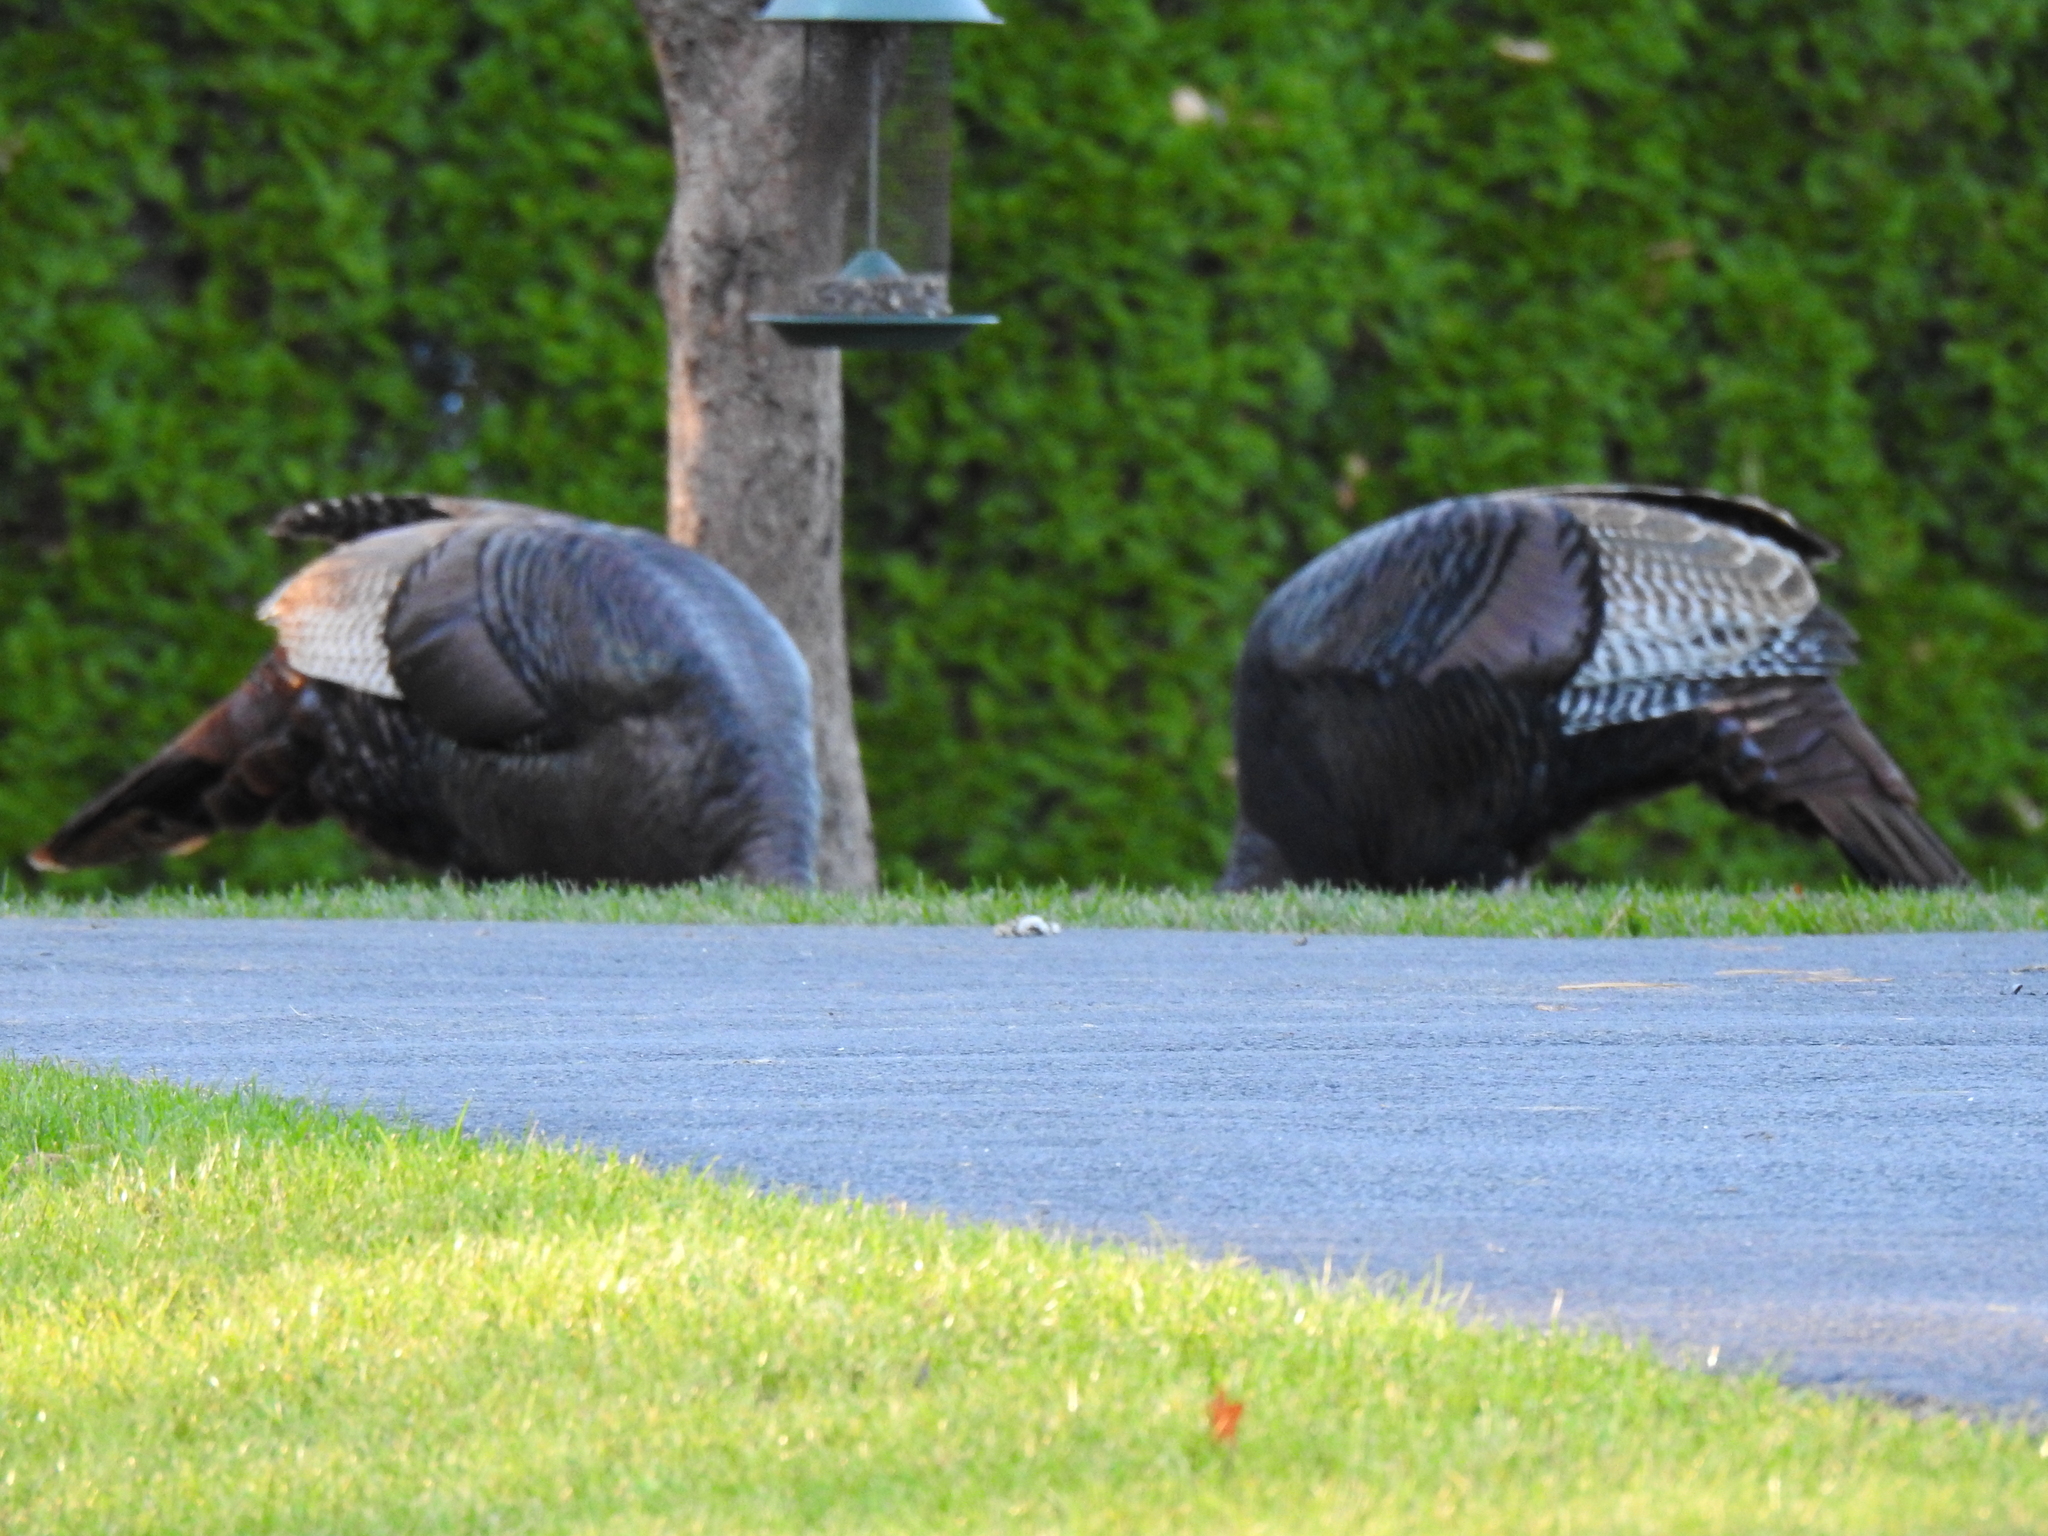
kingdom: Animalia
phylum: Chordata
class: Aves
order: Galliformes
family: Phasianidae
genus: Meleagris
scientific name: Meleagris gallopavo
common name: Wild turkey
